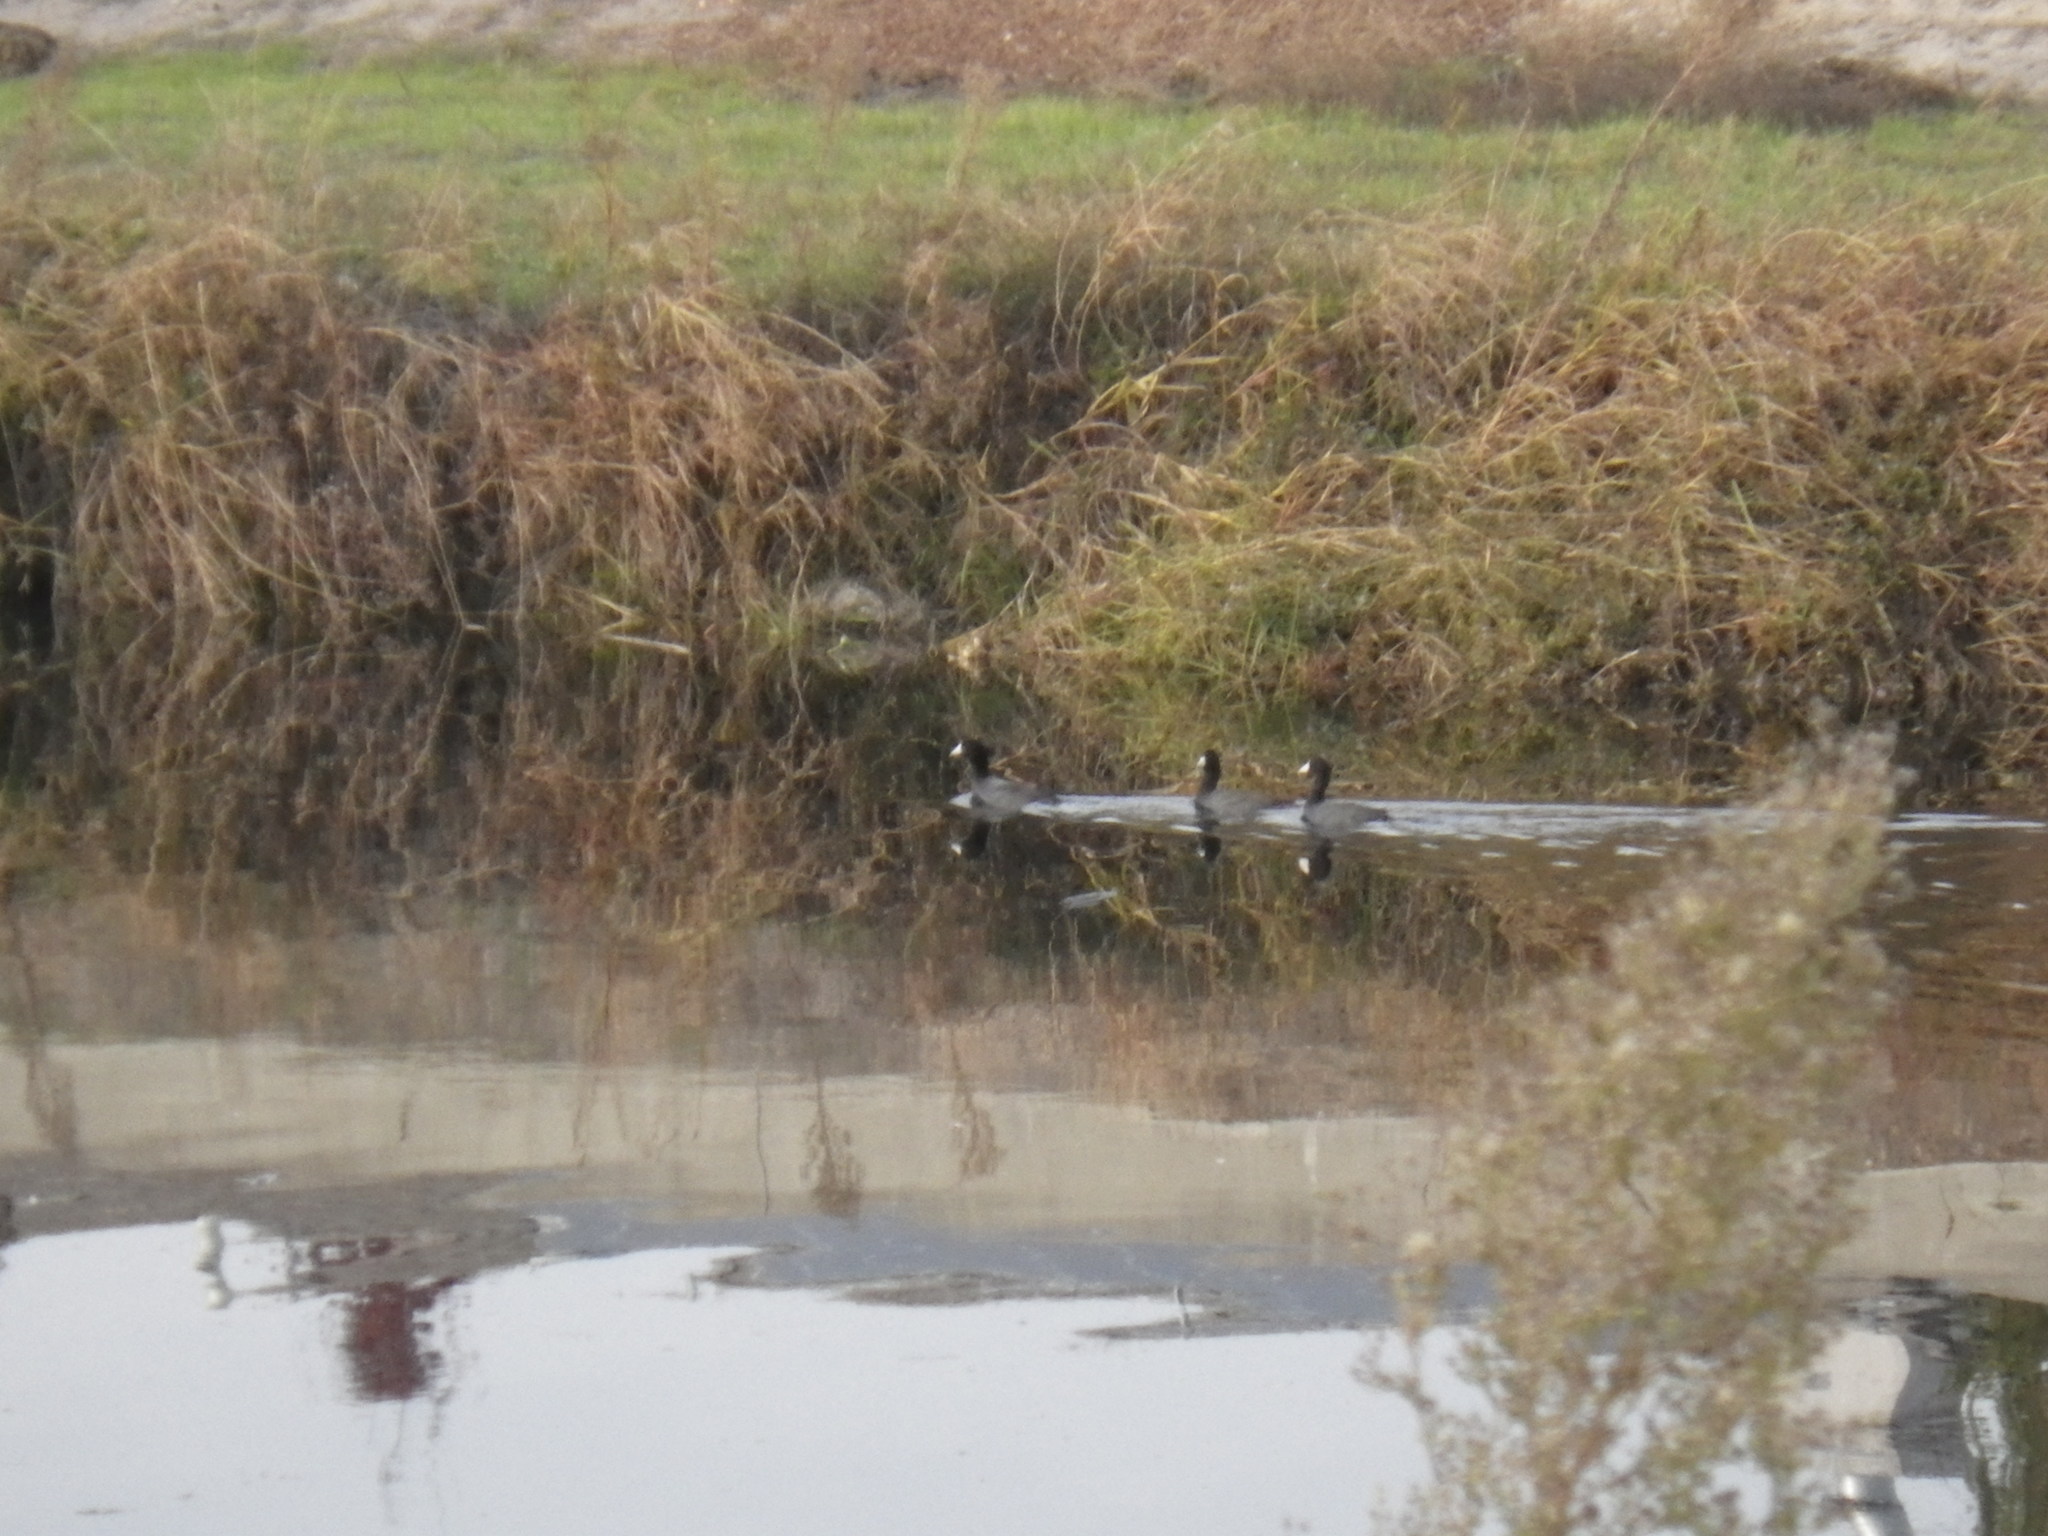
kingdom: Animalia
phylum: Chordata
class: Aves
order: Gruiformes
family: Rallidae
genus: Fulica
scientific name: Fulica americana
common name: American coot
